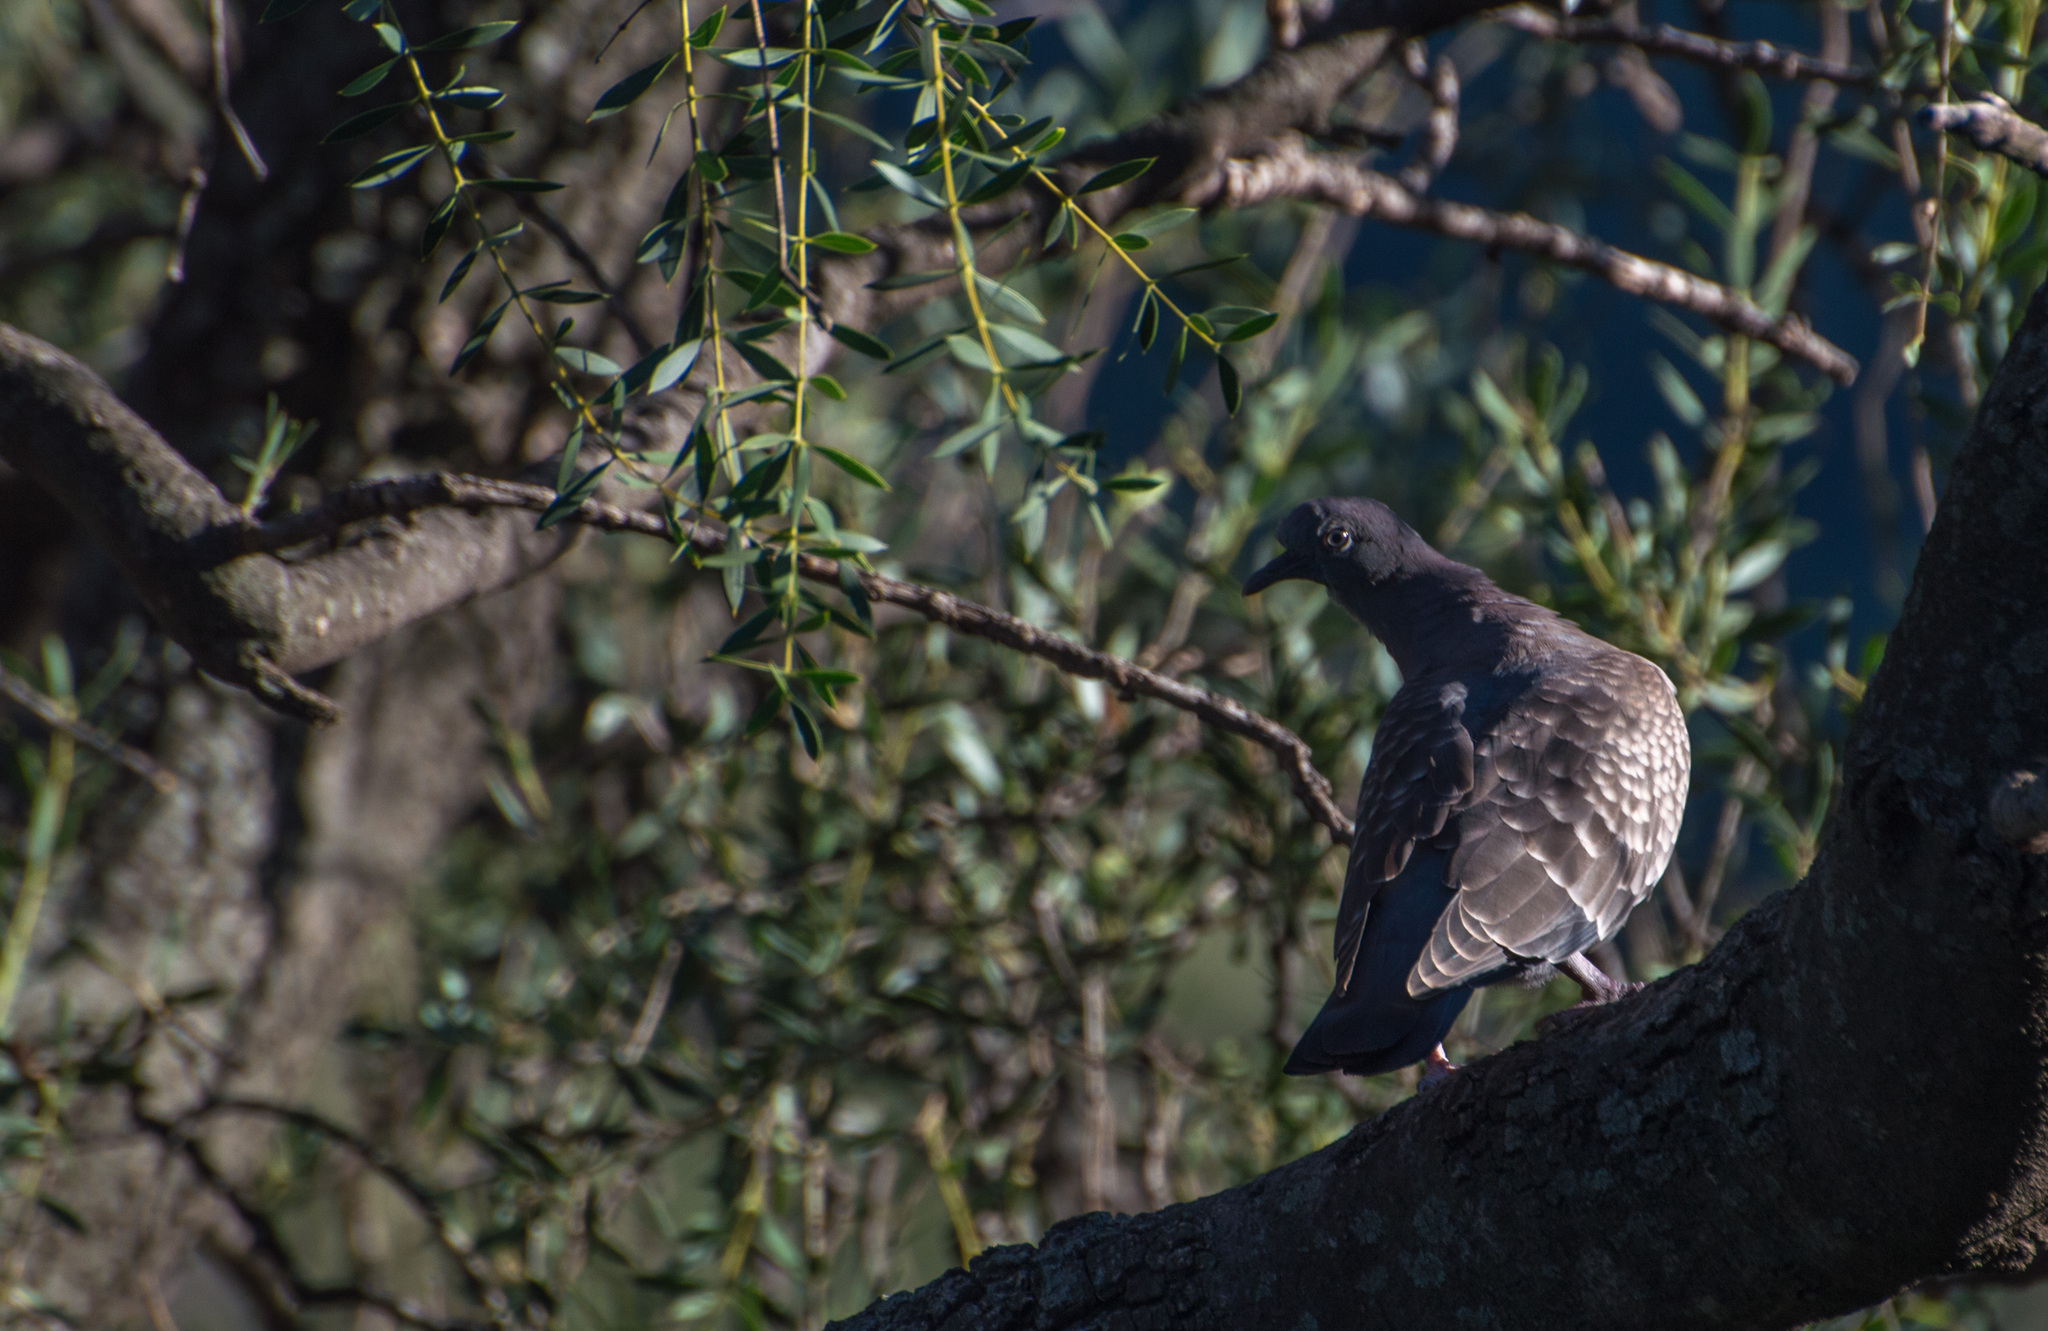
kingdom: Animalia
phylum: Chordata
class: Aves
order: Columbiformes
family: Columbidae
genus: Patagioenas
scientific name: Patagioenas maculosa
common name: Spot-winged pigeon
